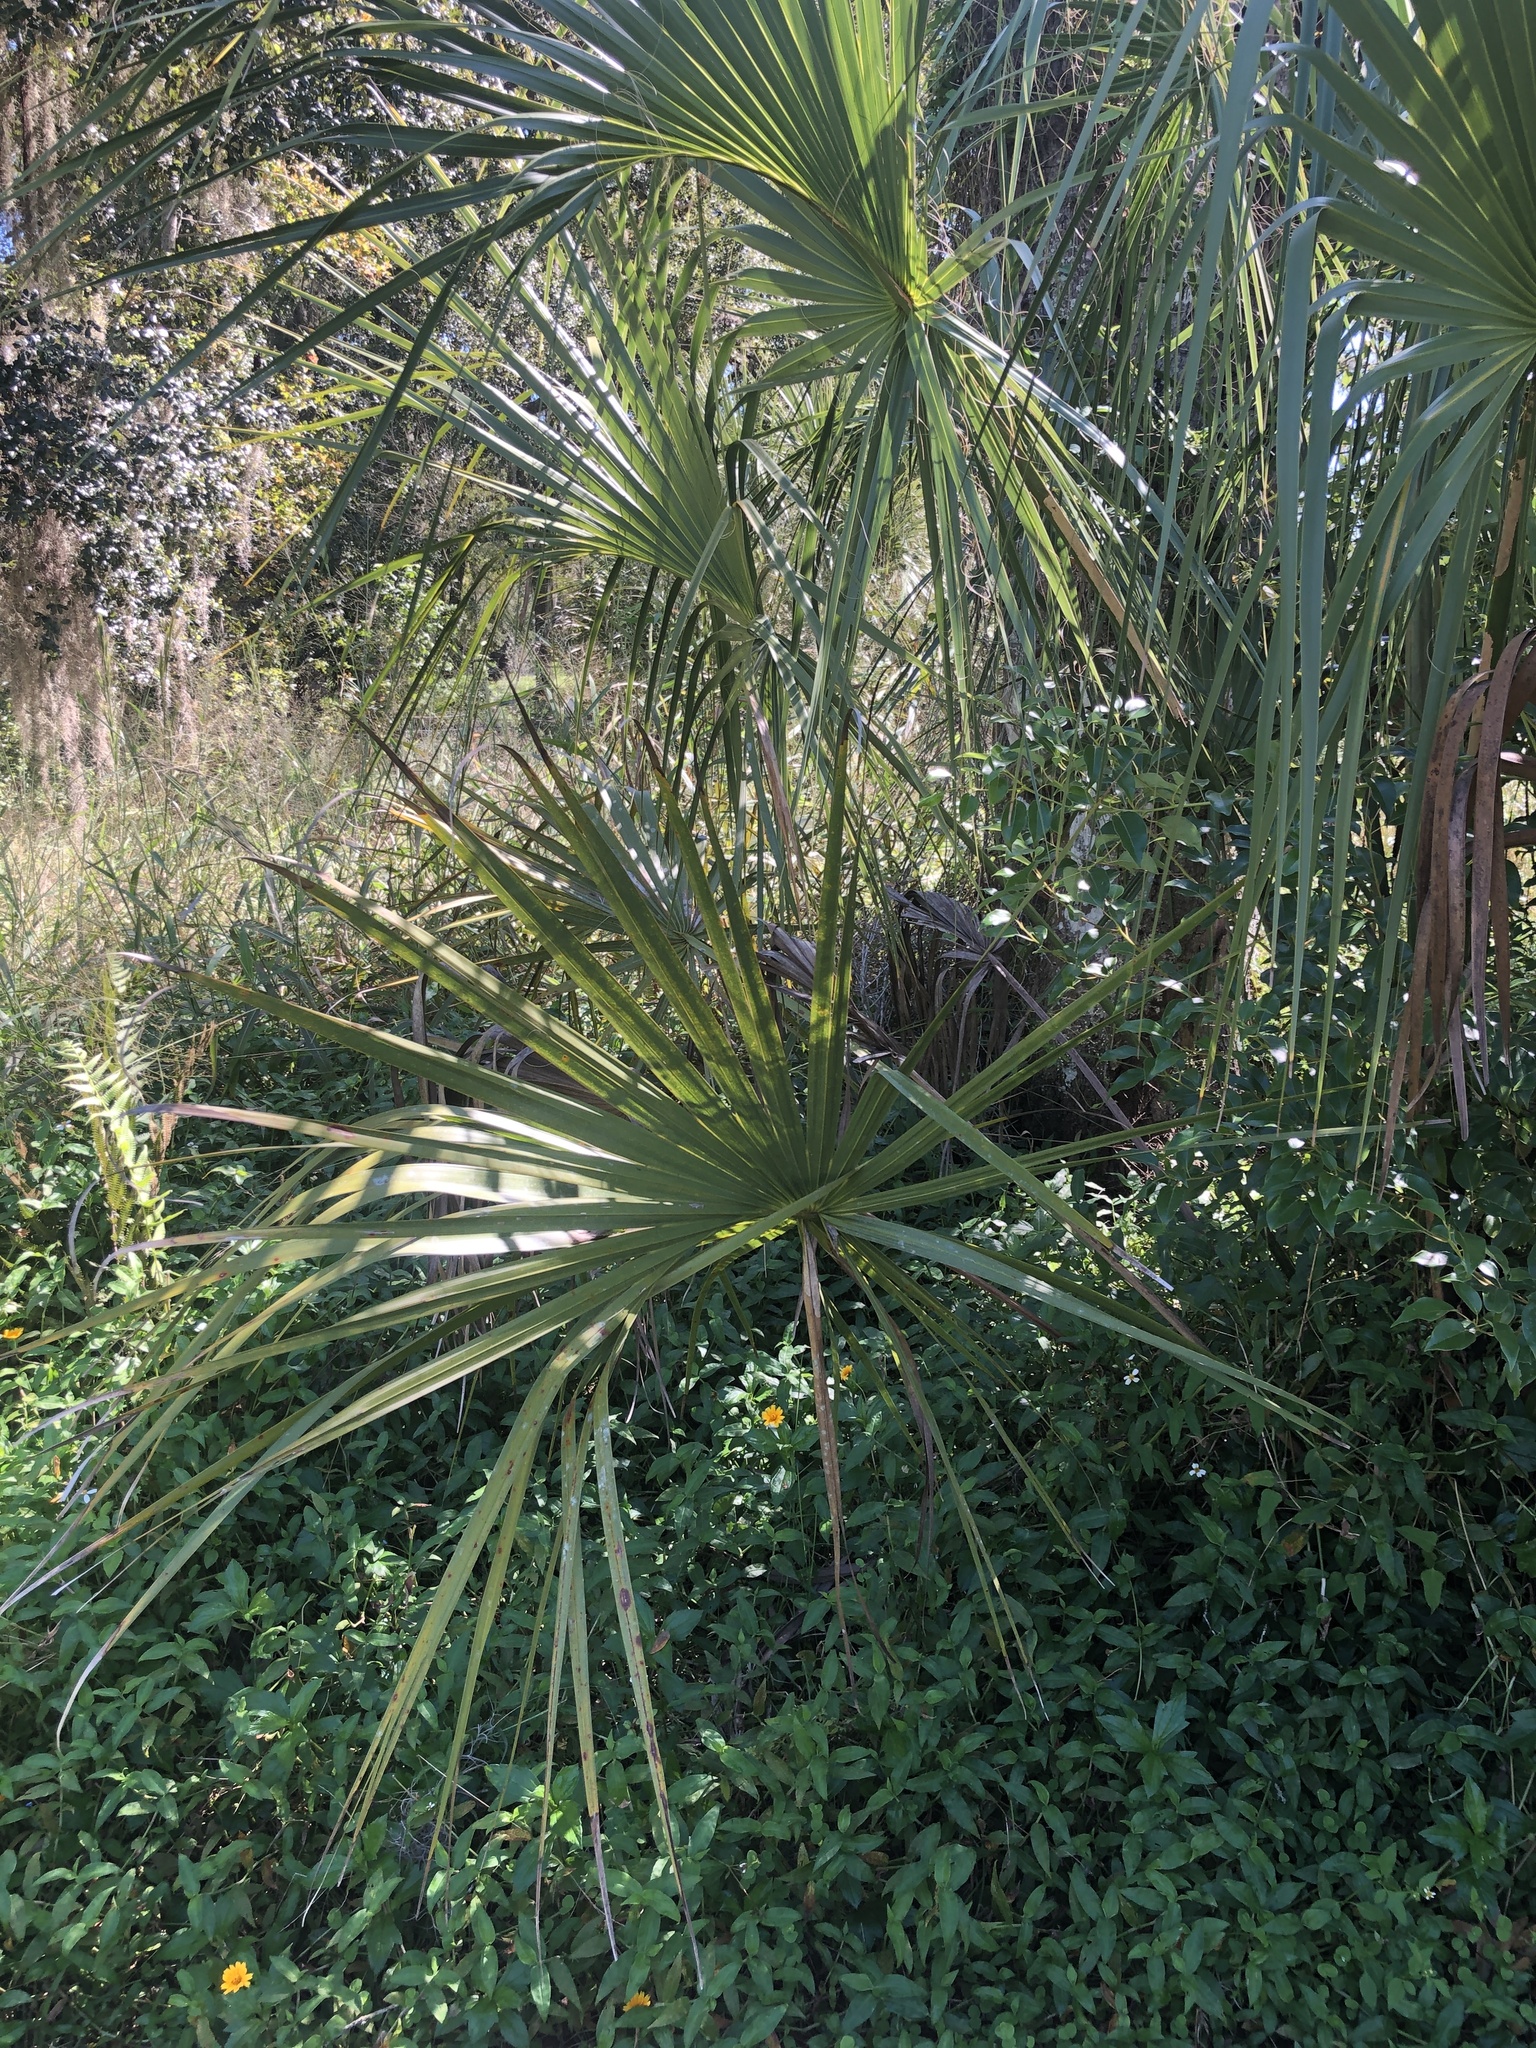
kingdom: Plantae
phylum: Tracheophyta
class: Liliopsida
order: Arecales
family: Arecaceae
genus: Sabal
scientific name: Sabal palmetto
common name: Blue palmetto
